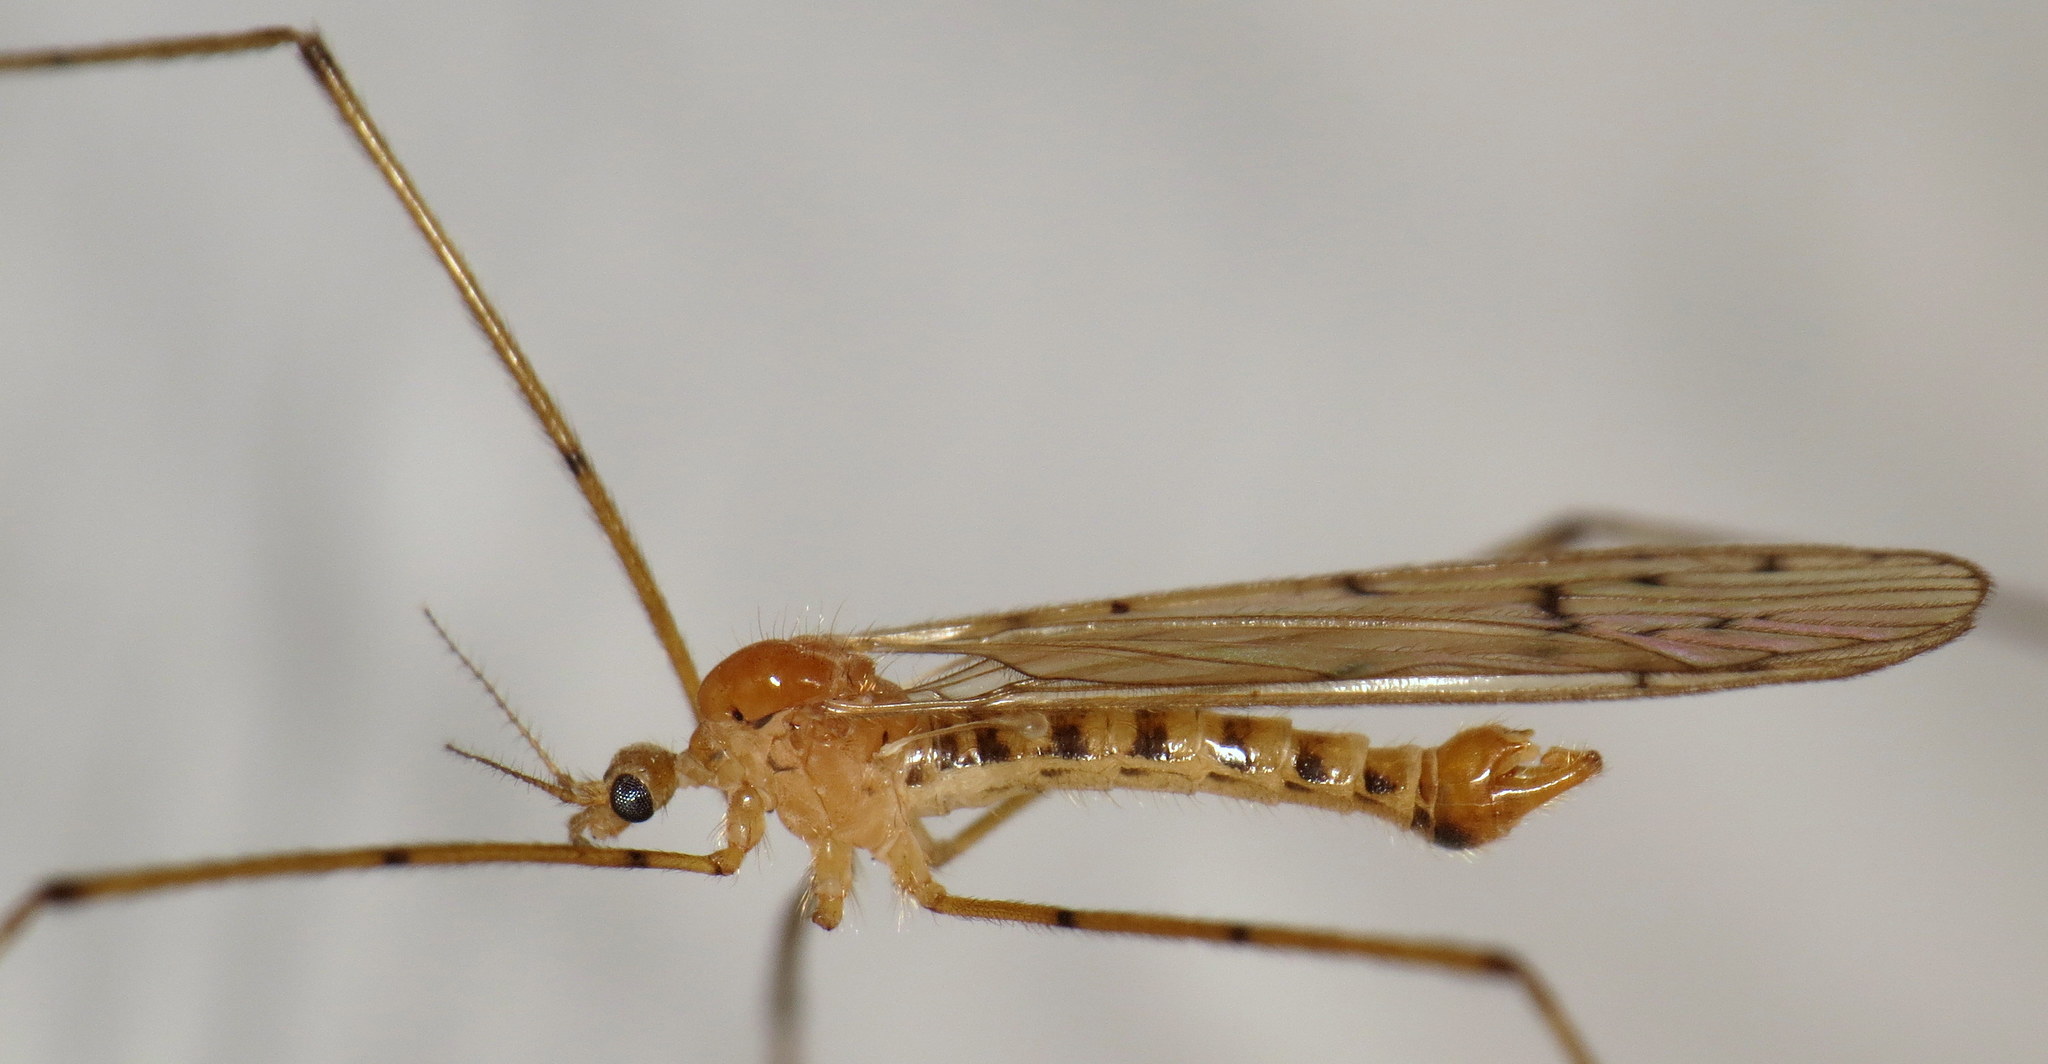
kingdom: Animalia
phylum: Arthropoda
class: Insecta
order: Diptera
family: Limoniidae
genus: Cladura
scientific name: Cladura flavoferruginea
